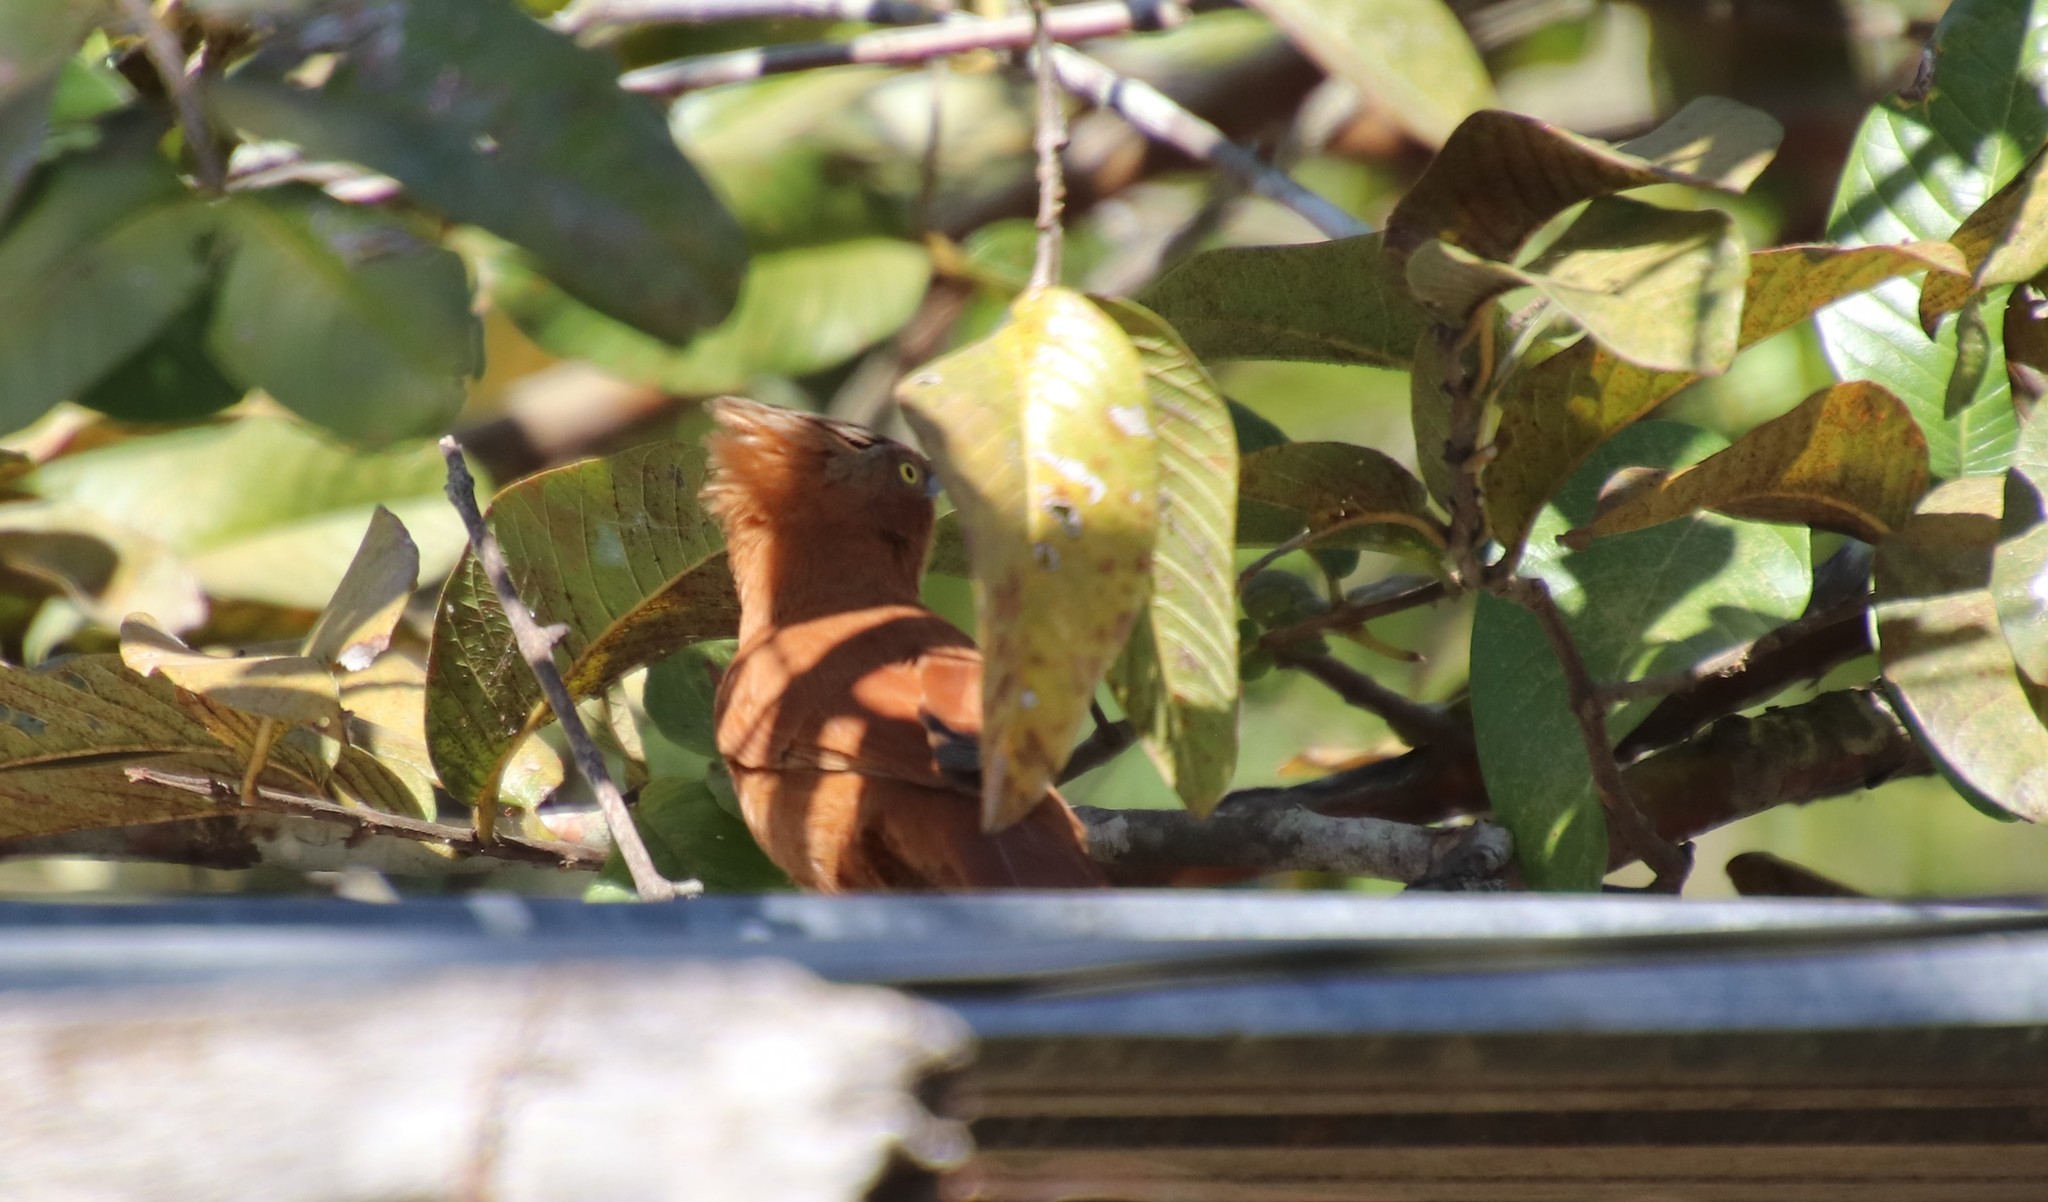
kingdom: Animalia
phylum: Chordata
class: Aves
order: Passeriformes
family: Furnariidae
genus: Pseudoseisura
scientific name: Pseudoseisura unirufa
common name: Grey-crested cacholote
